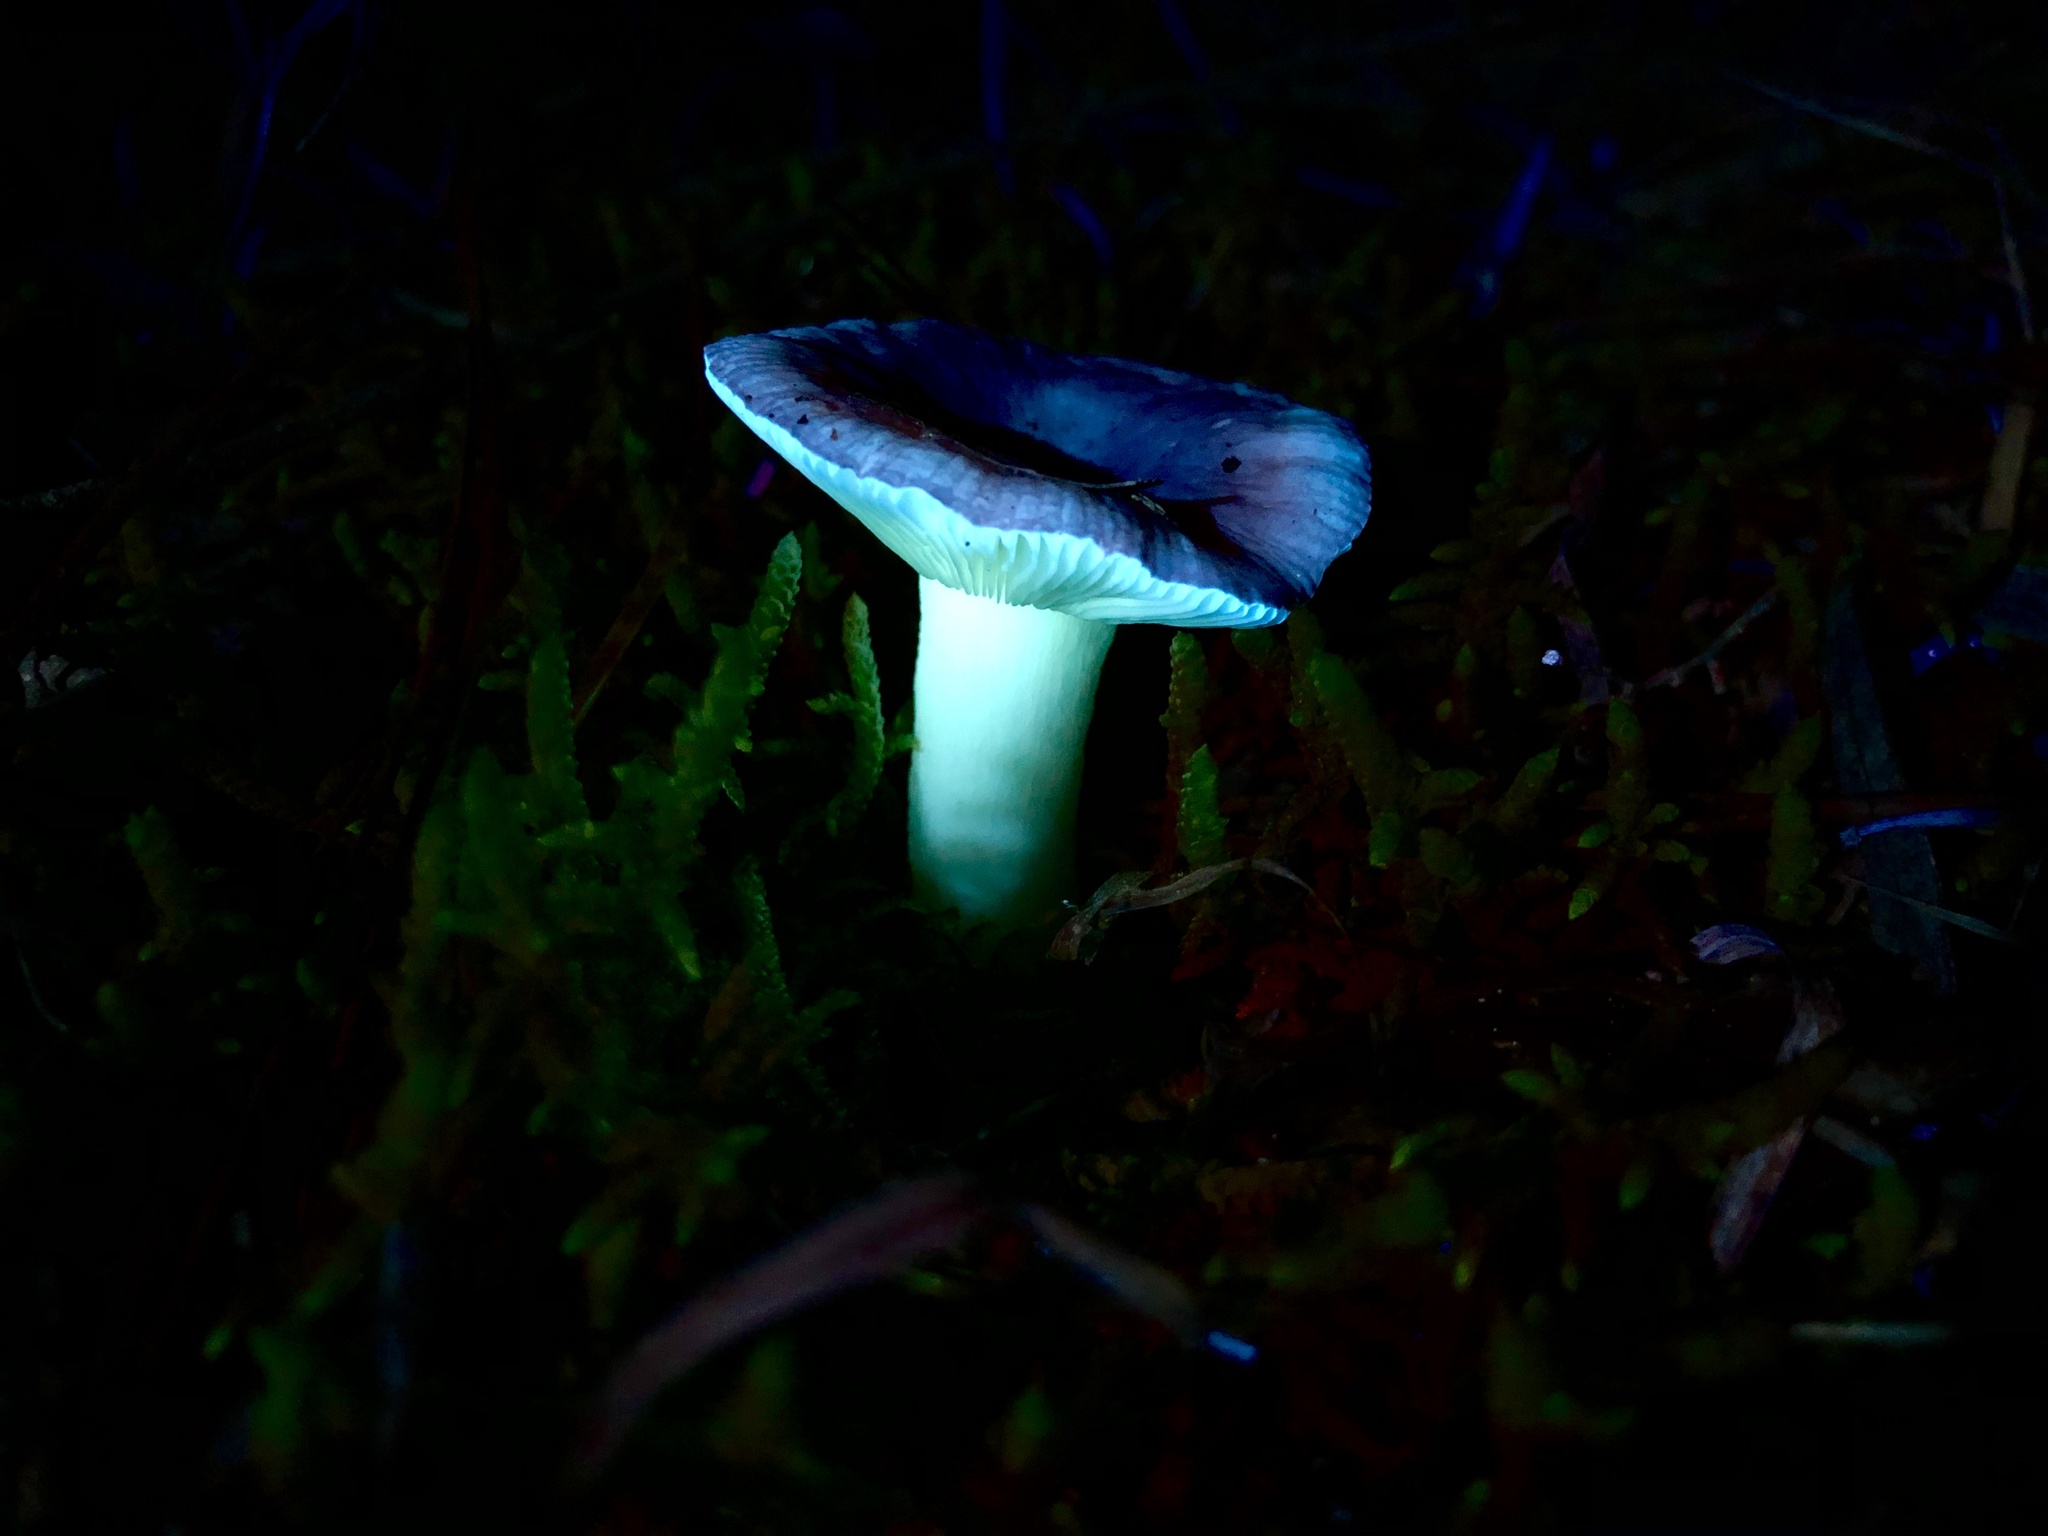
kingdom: Fungi
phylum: Basidiomycota
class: Agaricomycetes
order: Russulales
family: Russulaceae
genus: Russula
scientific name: Russula persanguinea
